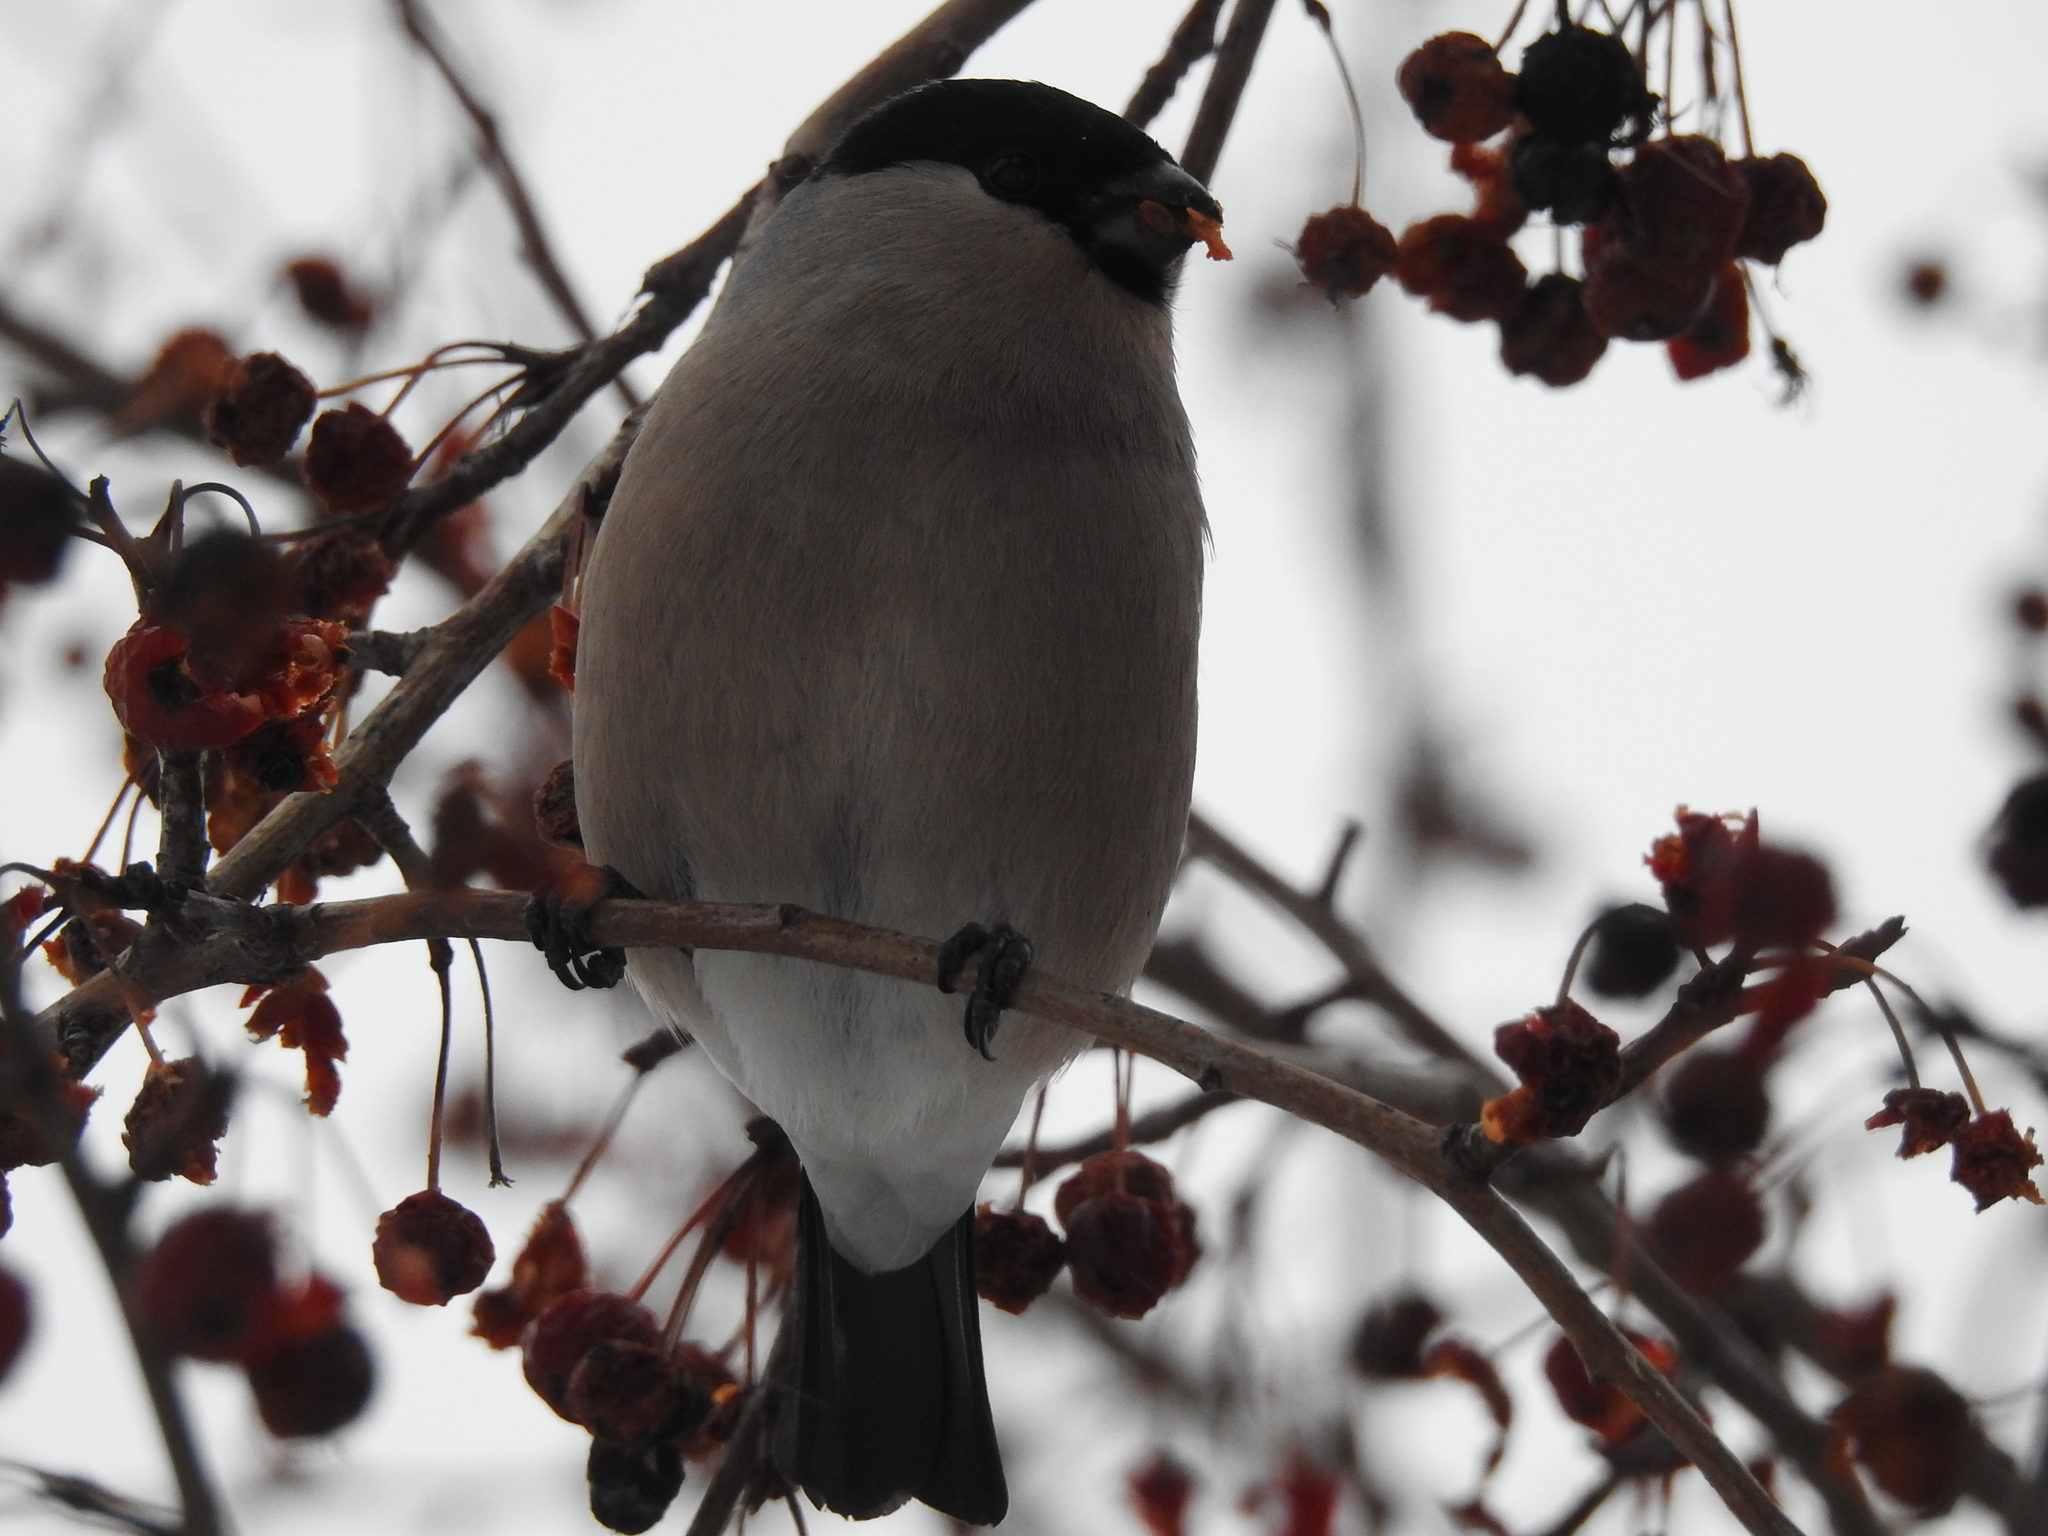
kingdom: Animalia
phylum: Chordata
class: Aves
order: Passeriformes
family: Fringillidae
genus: Pyrrhula
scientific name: Pyrrhula pyrrhula
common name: Eurasian bullfinch
